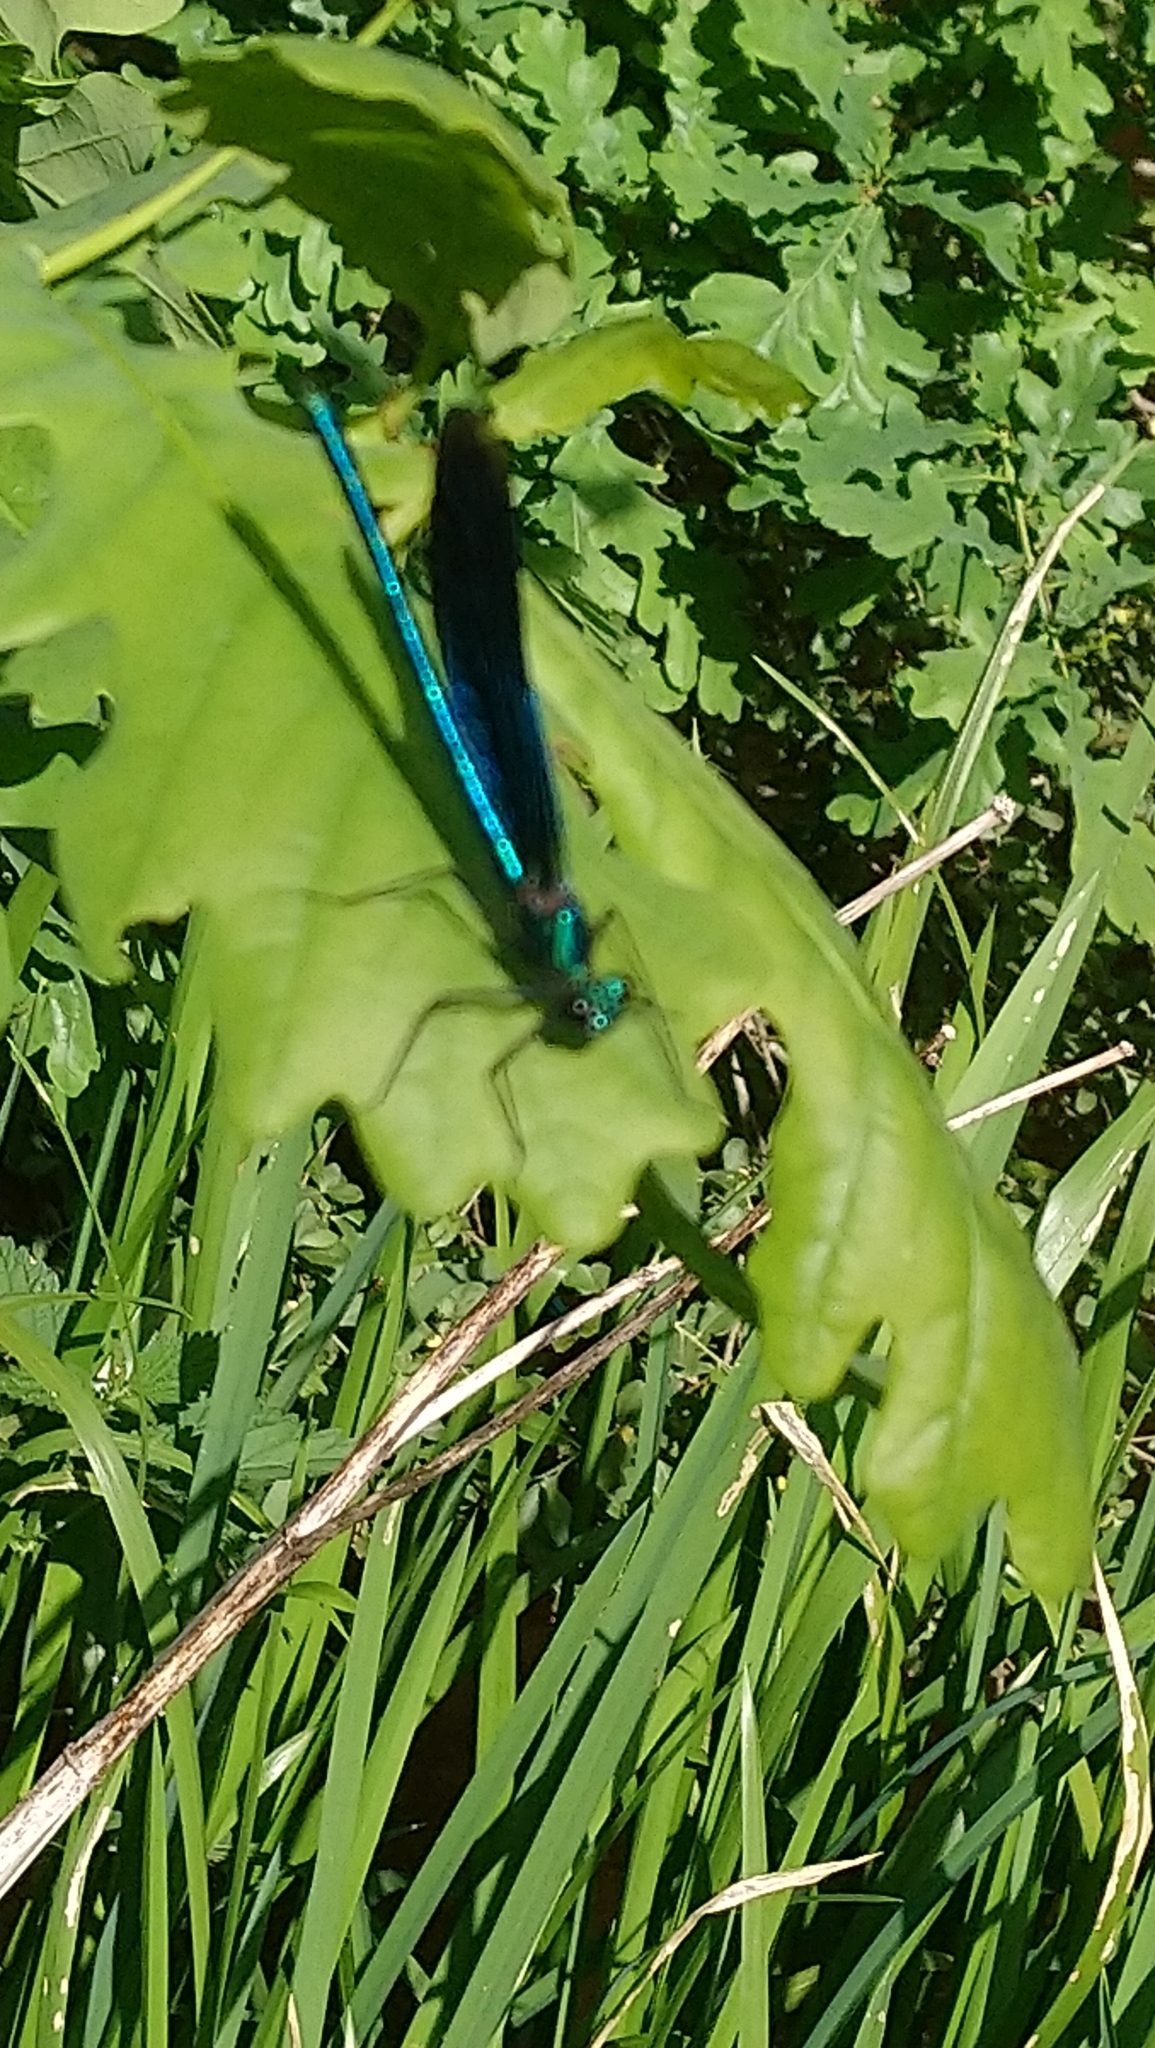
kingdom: Animalia
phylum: Arthropoda
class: Insecta
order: Odonata
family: Calopterygidae
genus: Calopteryx
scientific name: Calopteryx virgo
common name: Beautiful demoiselle
